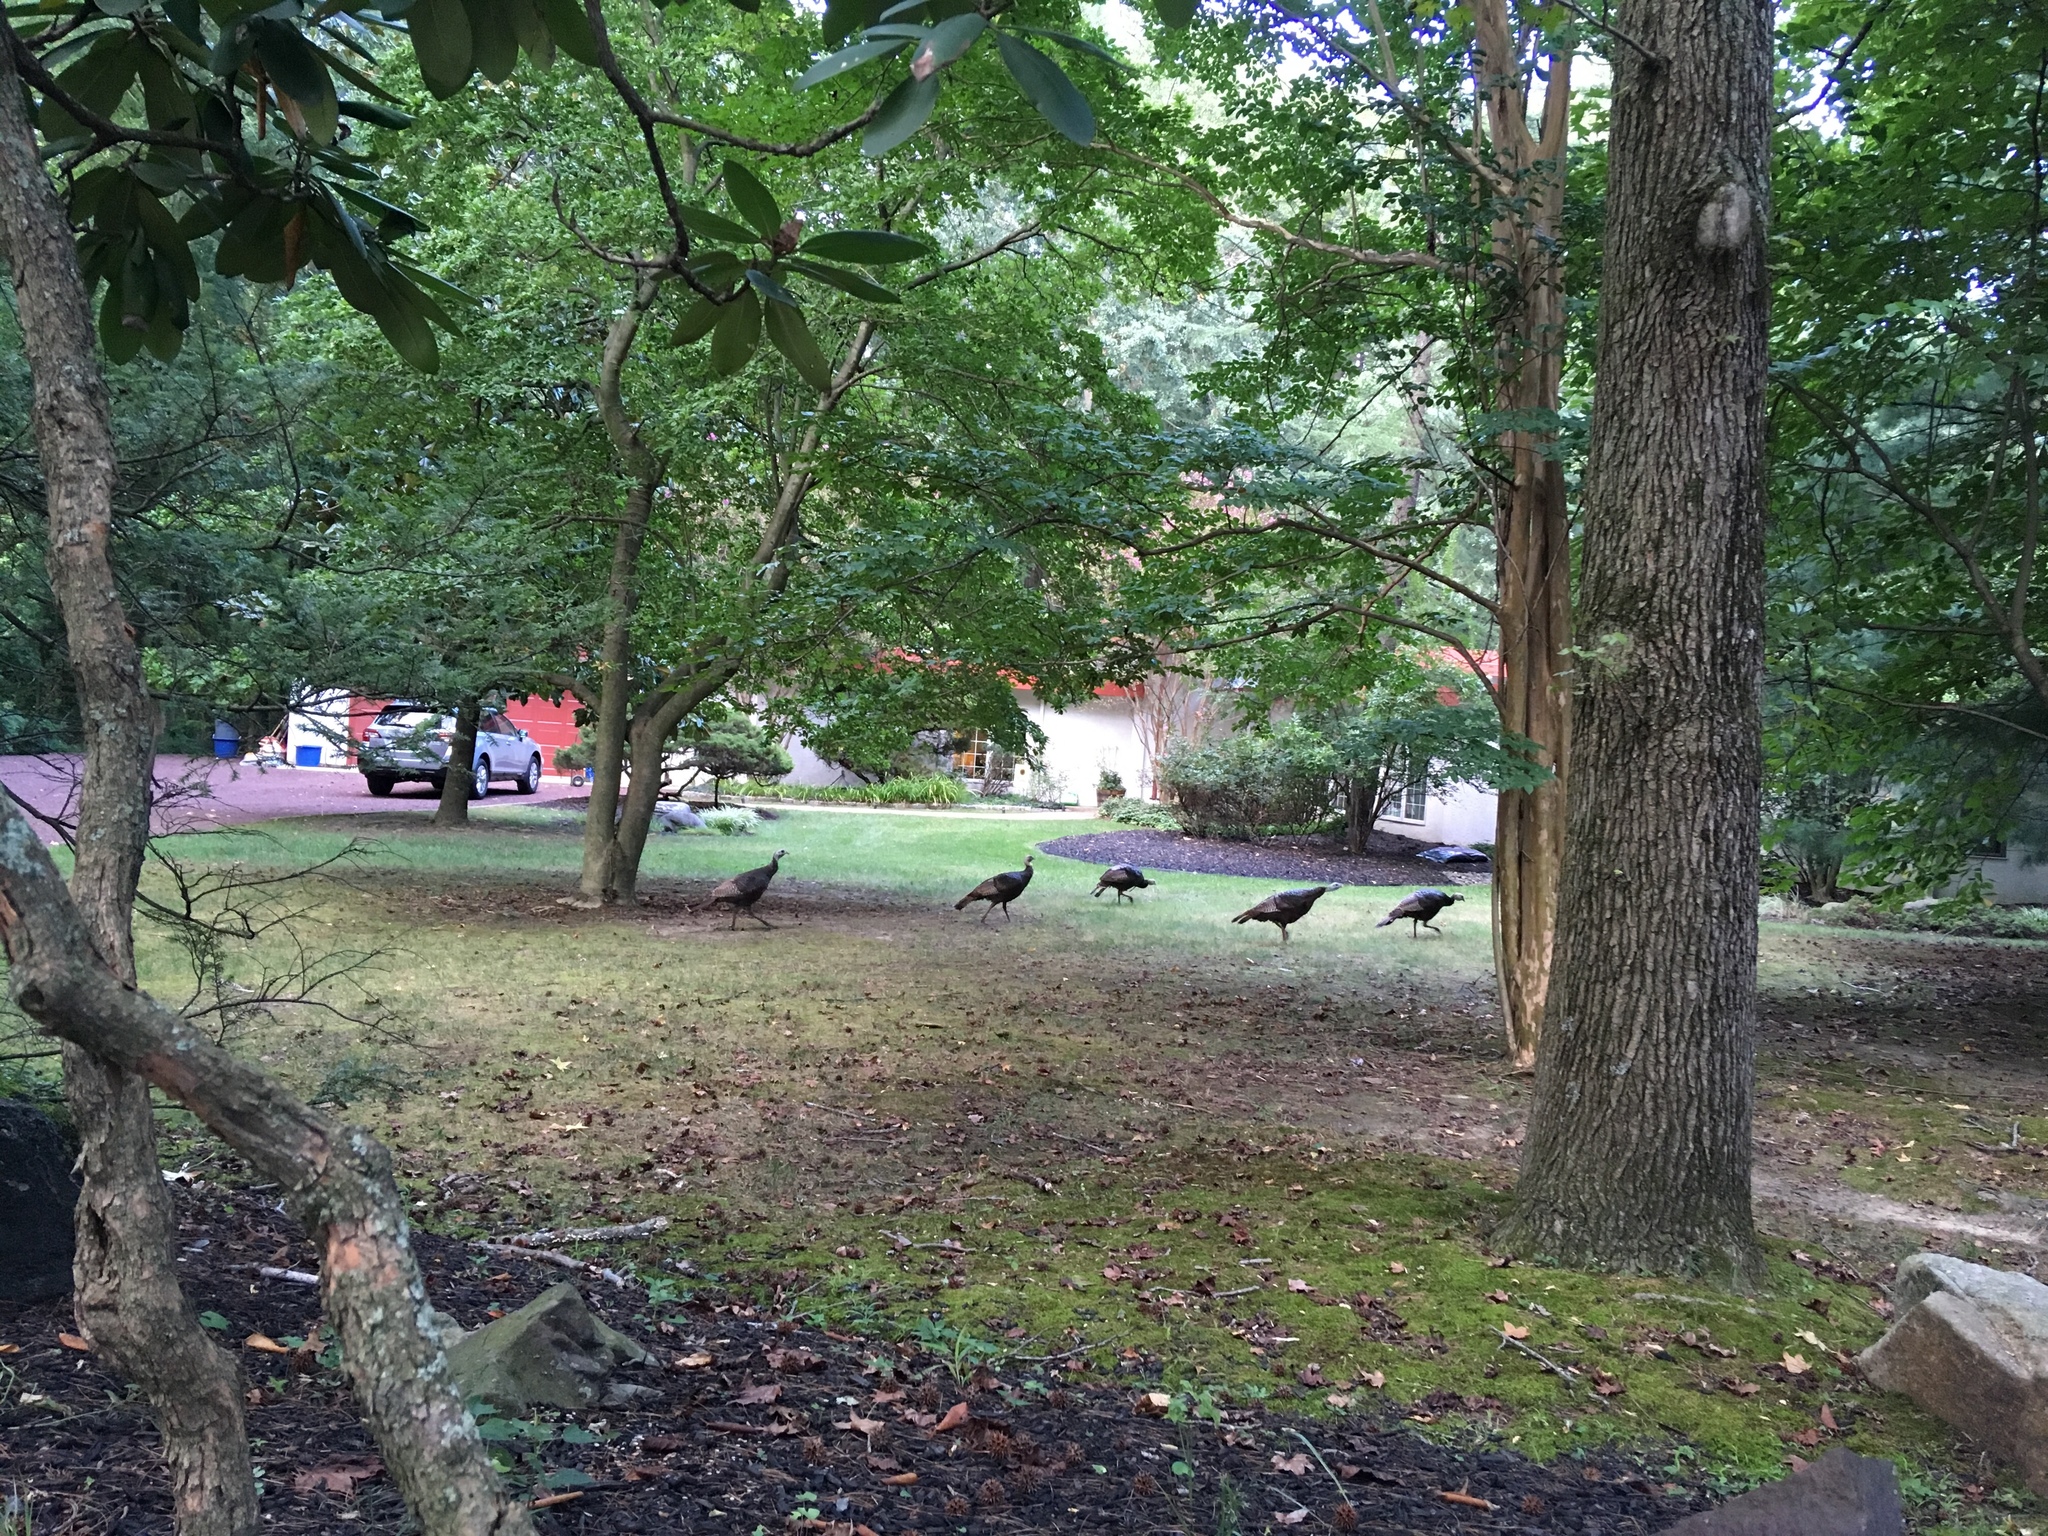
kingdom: Animalia
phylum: Chordata
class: Aves
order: Galliformes
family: Phasianidae
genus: Meleagris
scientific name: Meleagris gallopavo
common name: Wild turkey
